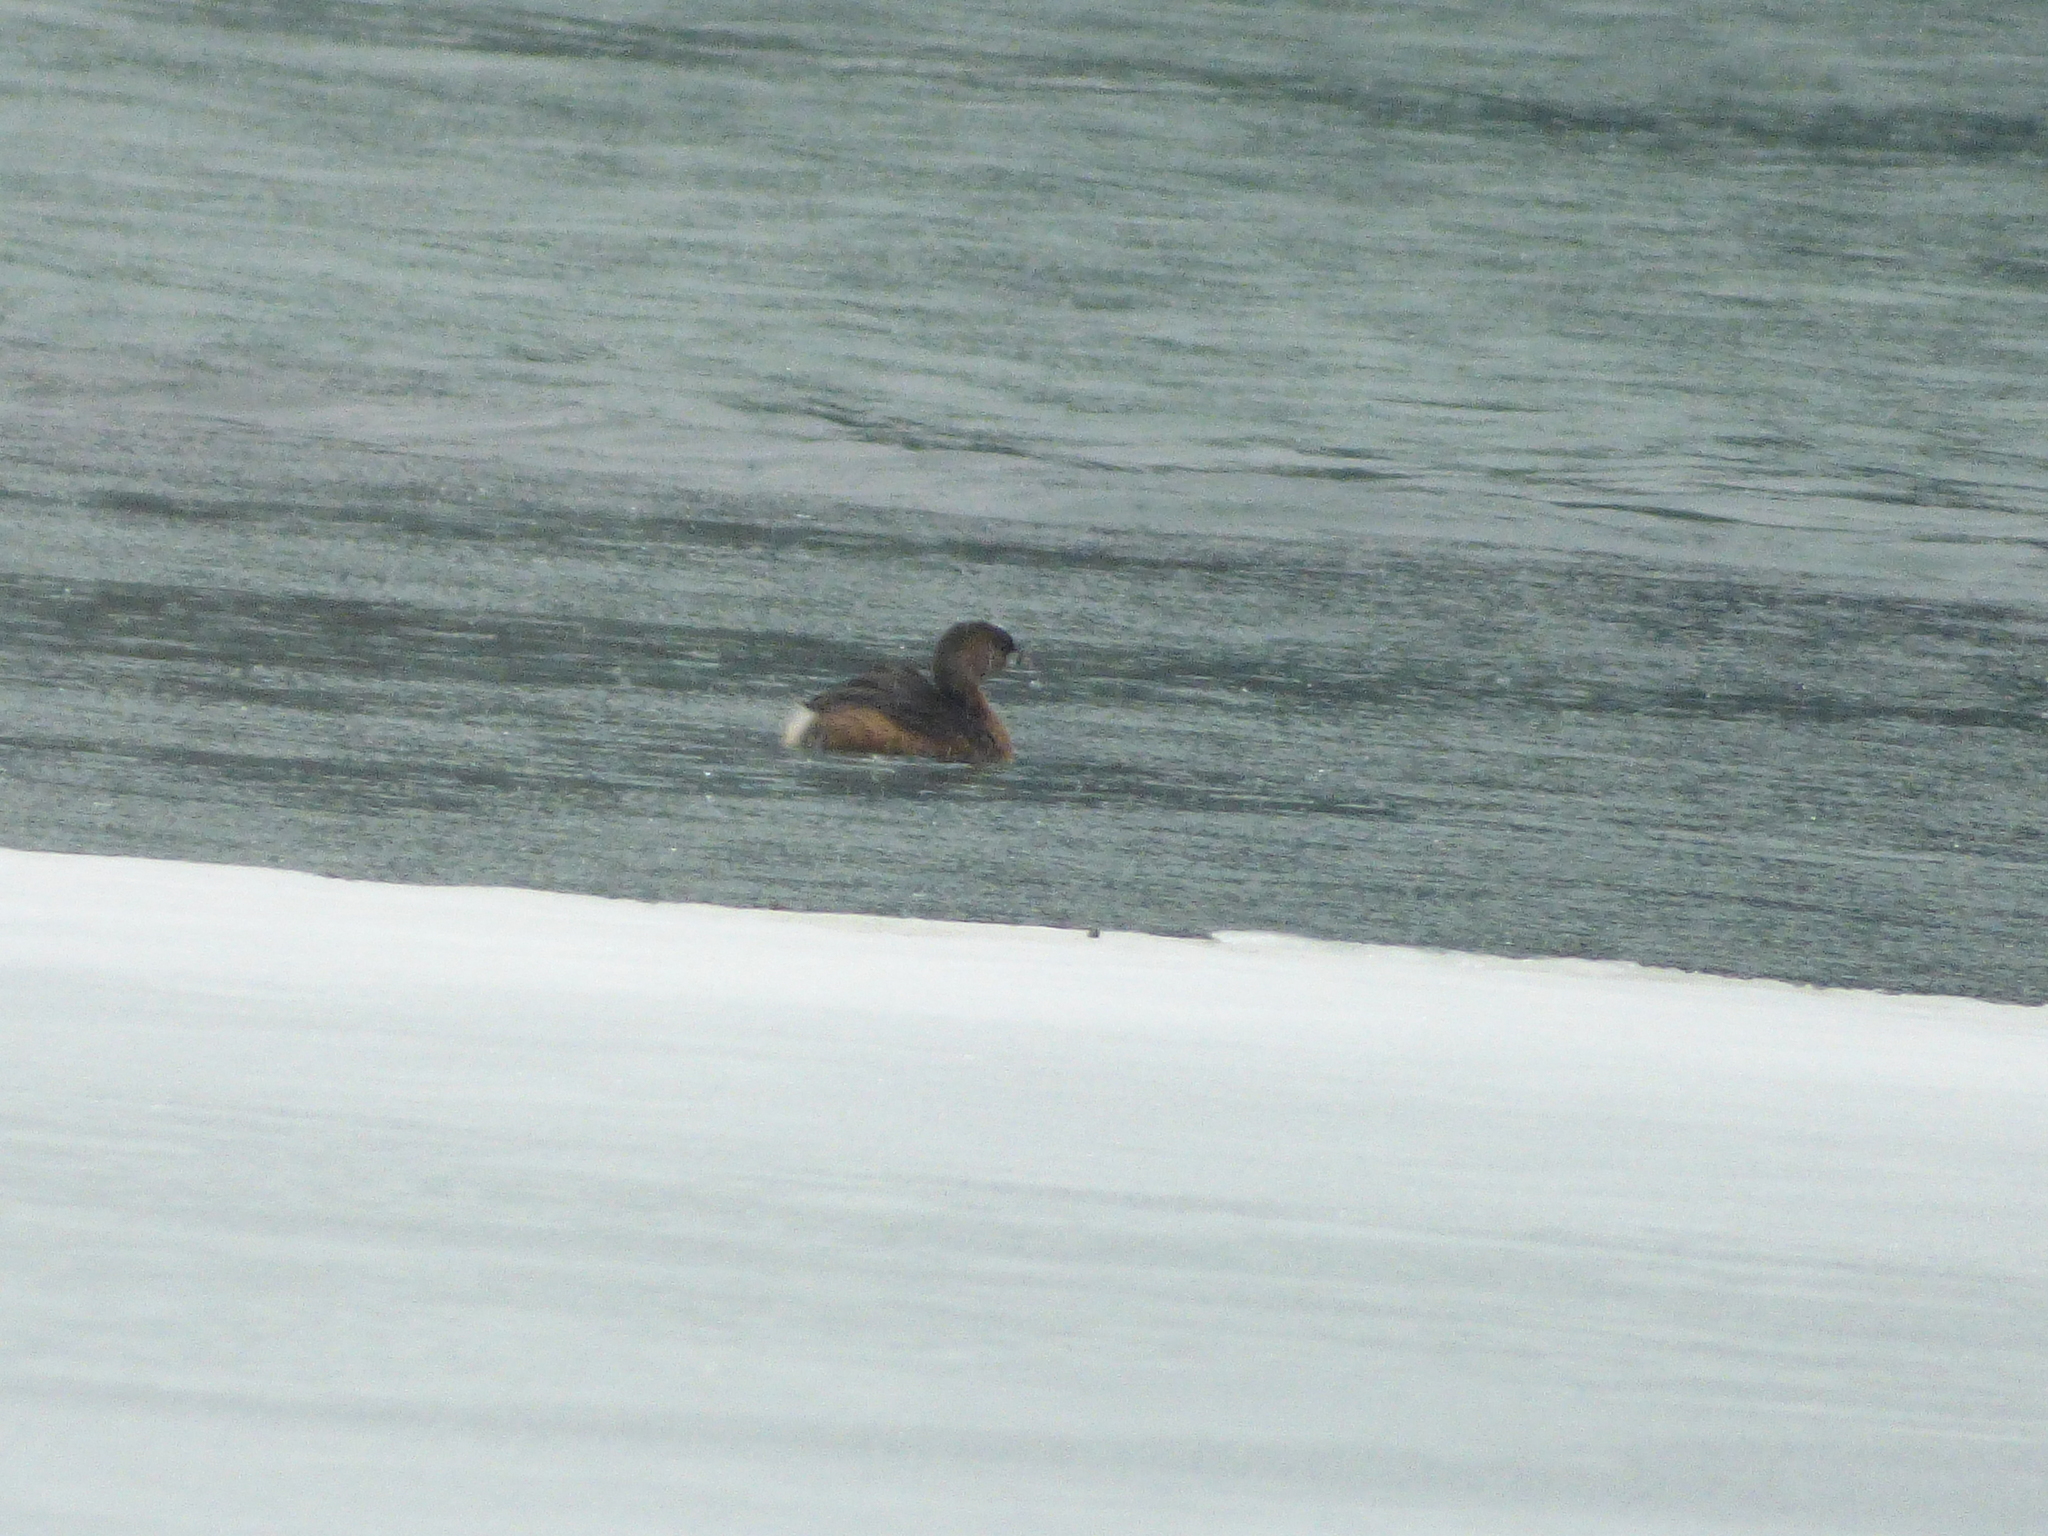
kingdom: Animalia
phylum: Chordata
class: Aves
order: Podicipediformes
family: Podicipedidae
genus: Podilymbus
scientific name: Podilymbus podiceps
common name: Pied-billed grebe
